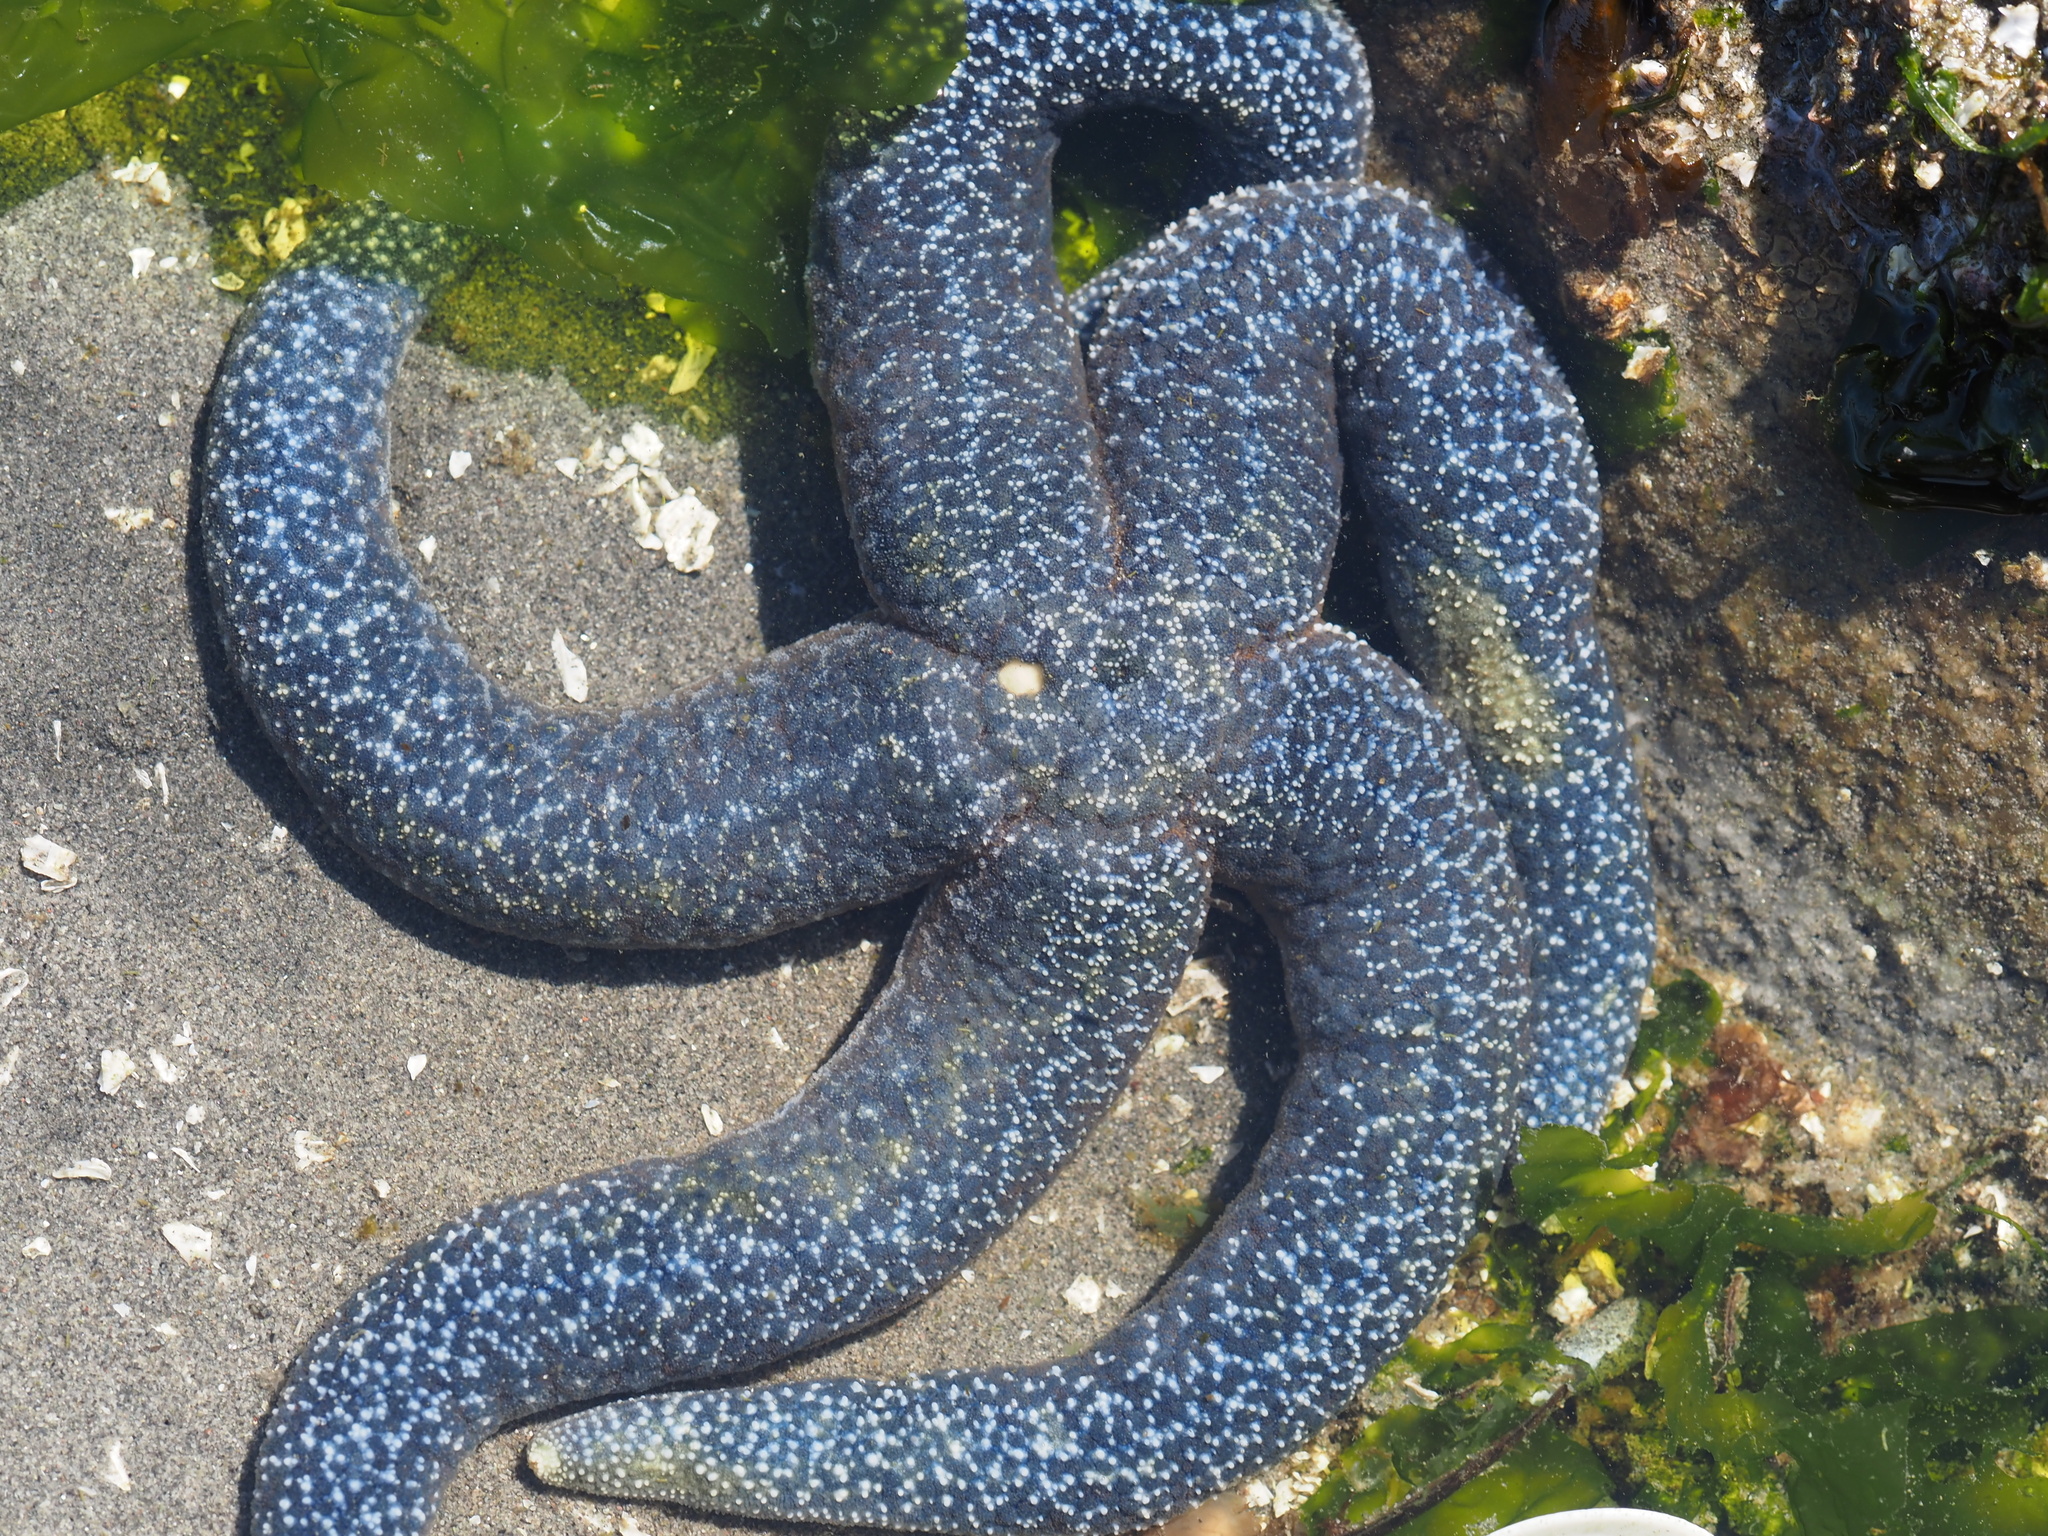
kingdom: Animalia
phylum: Echinodermata
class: Asteroidea
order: Forcipulatida
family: Asteriidae
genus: Evasterias
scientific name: Evasterias troschelii
